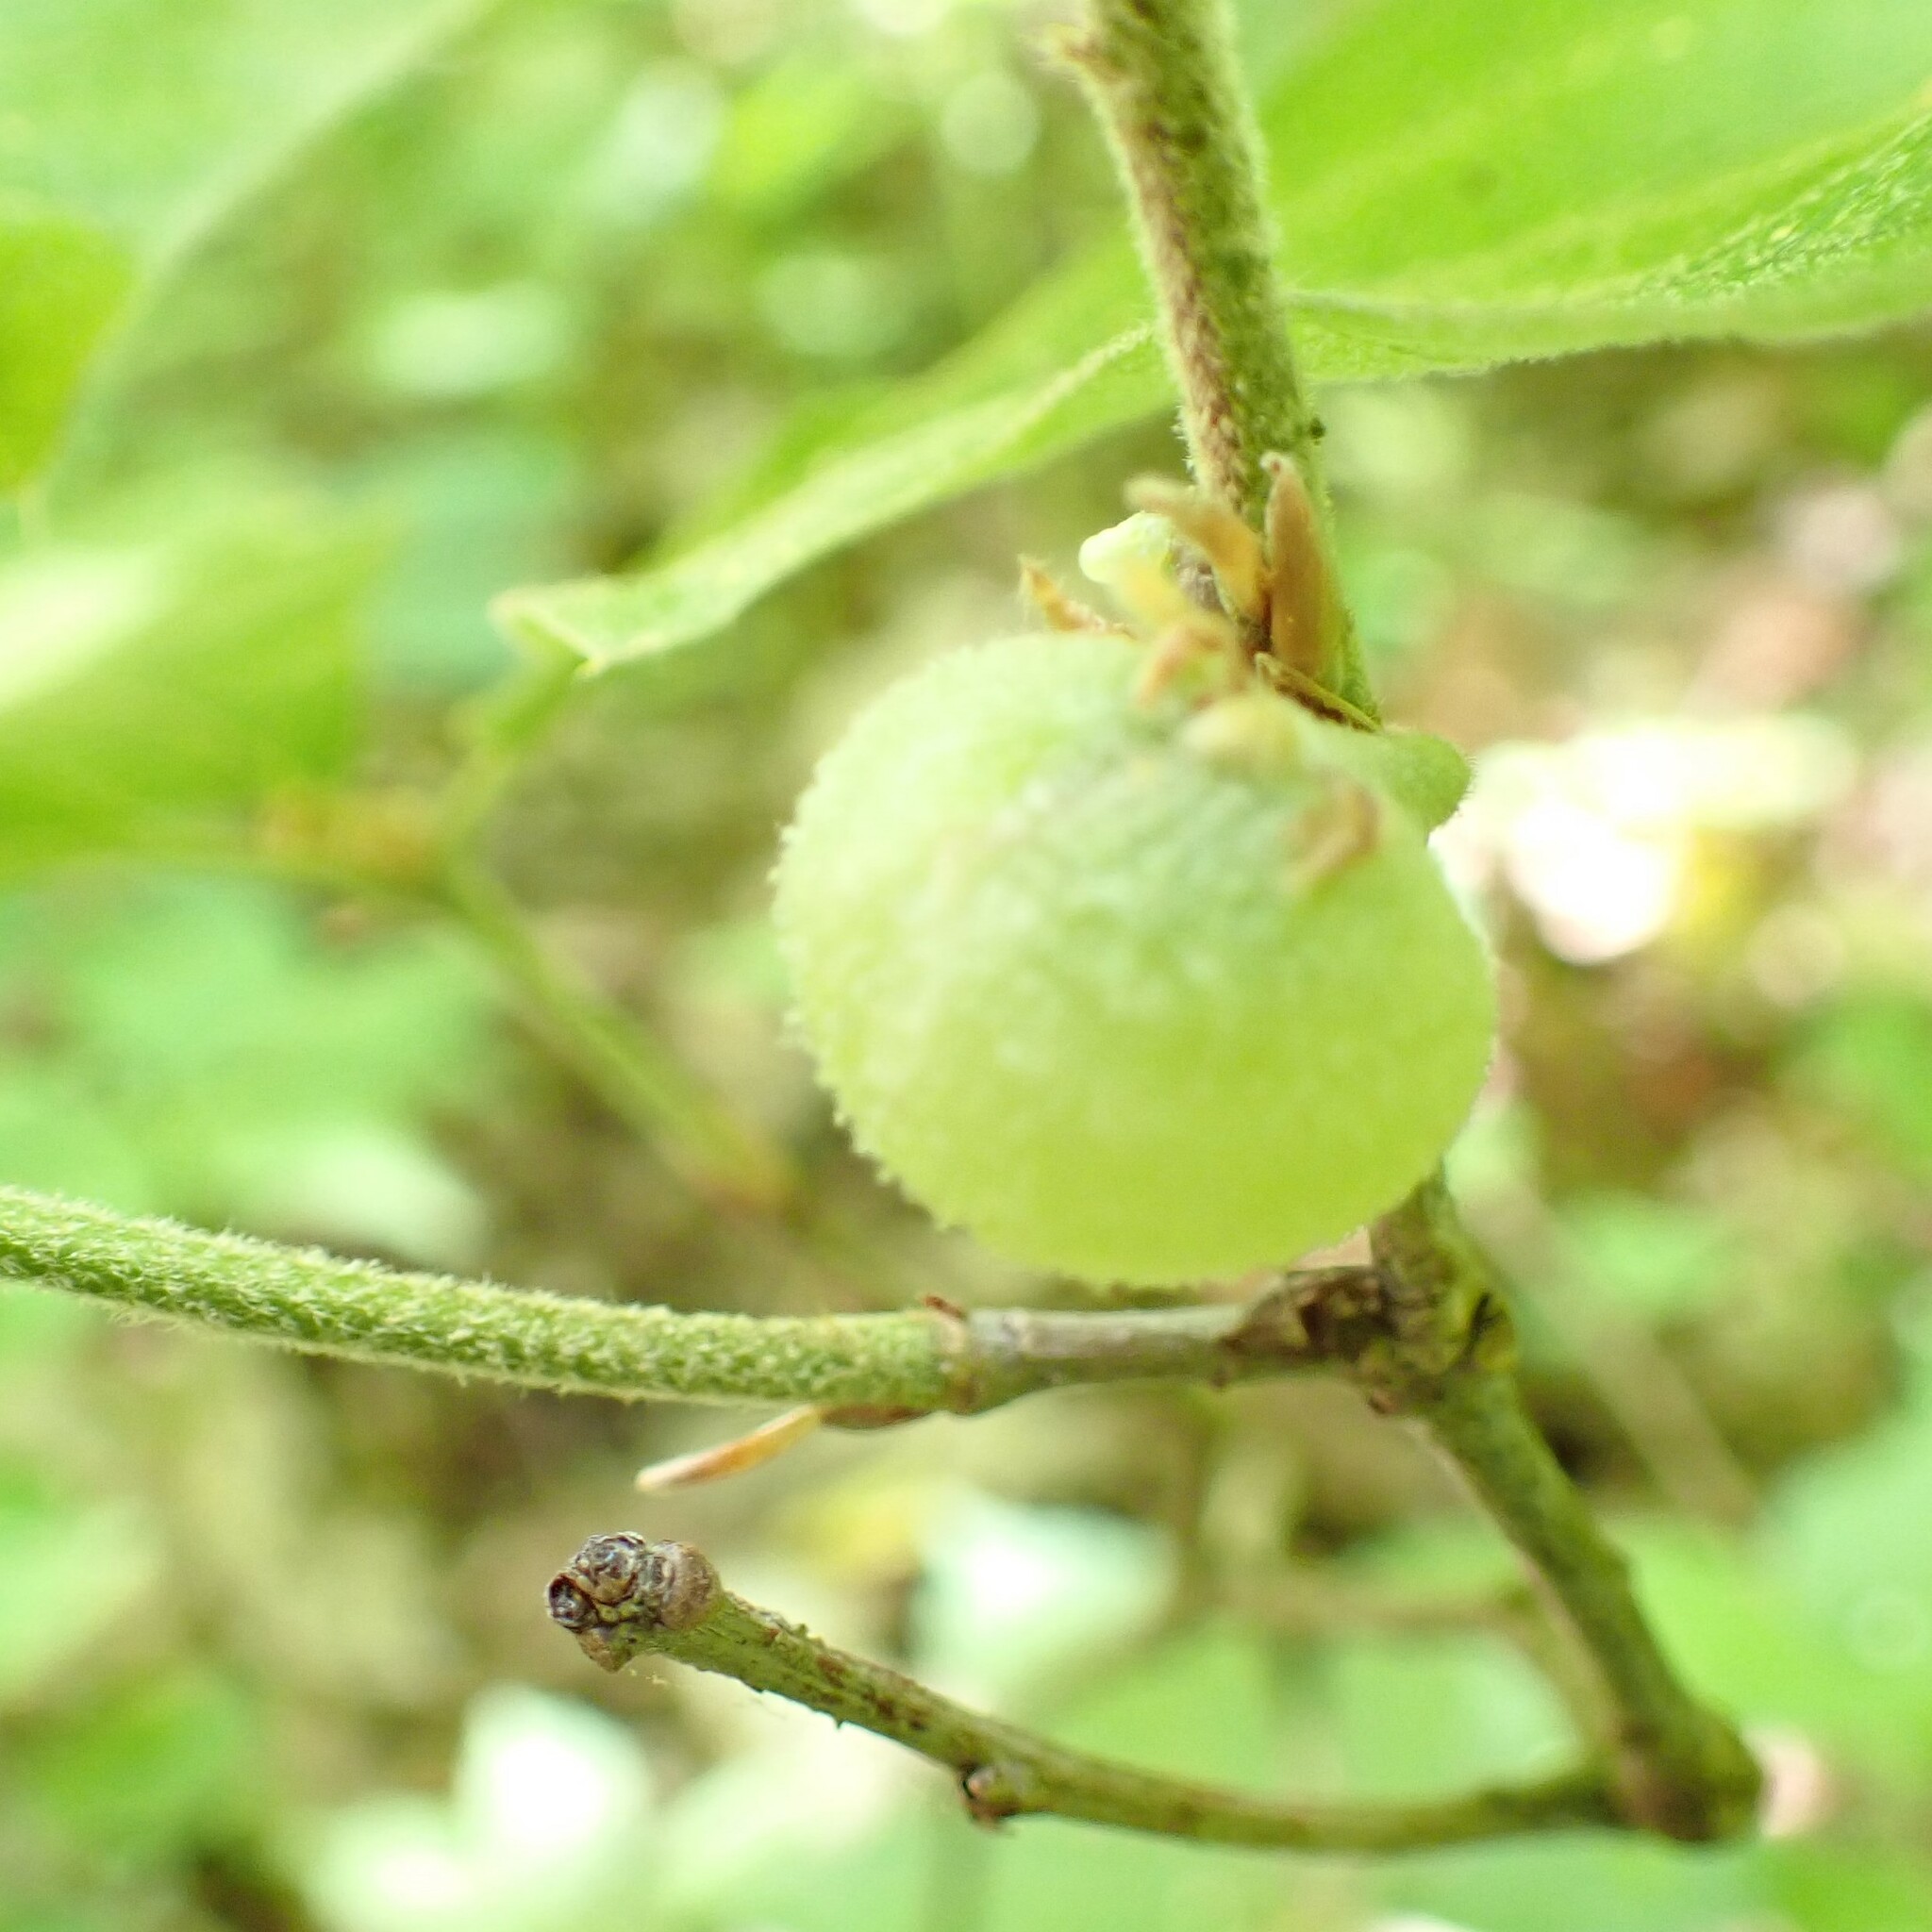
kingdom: Animalia
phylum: Arthropoda
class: Insecta
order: Hymenoptera
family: Cynipidae
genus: Dryocosmus
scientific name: Dryocosmus quercuspalustris
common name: Succulent oak gall wasp
